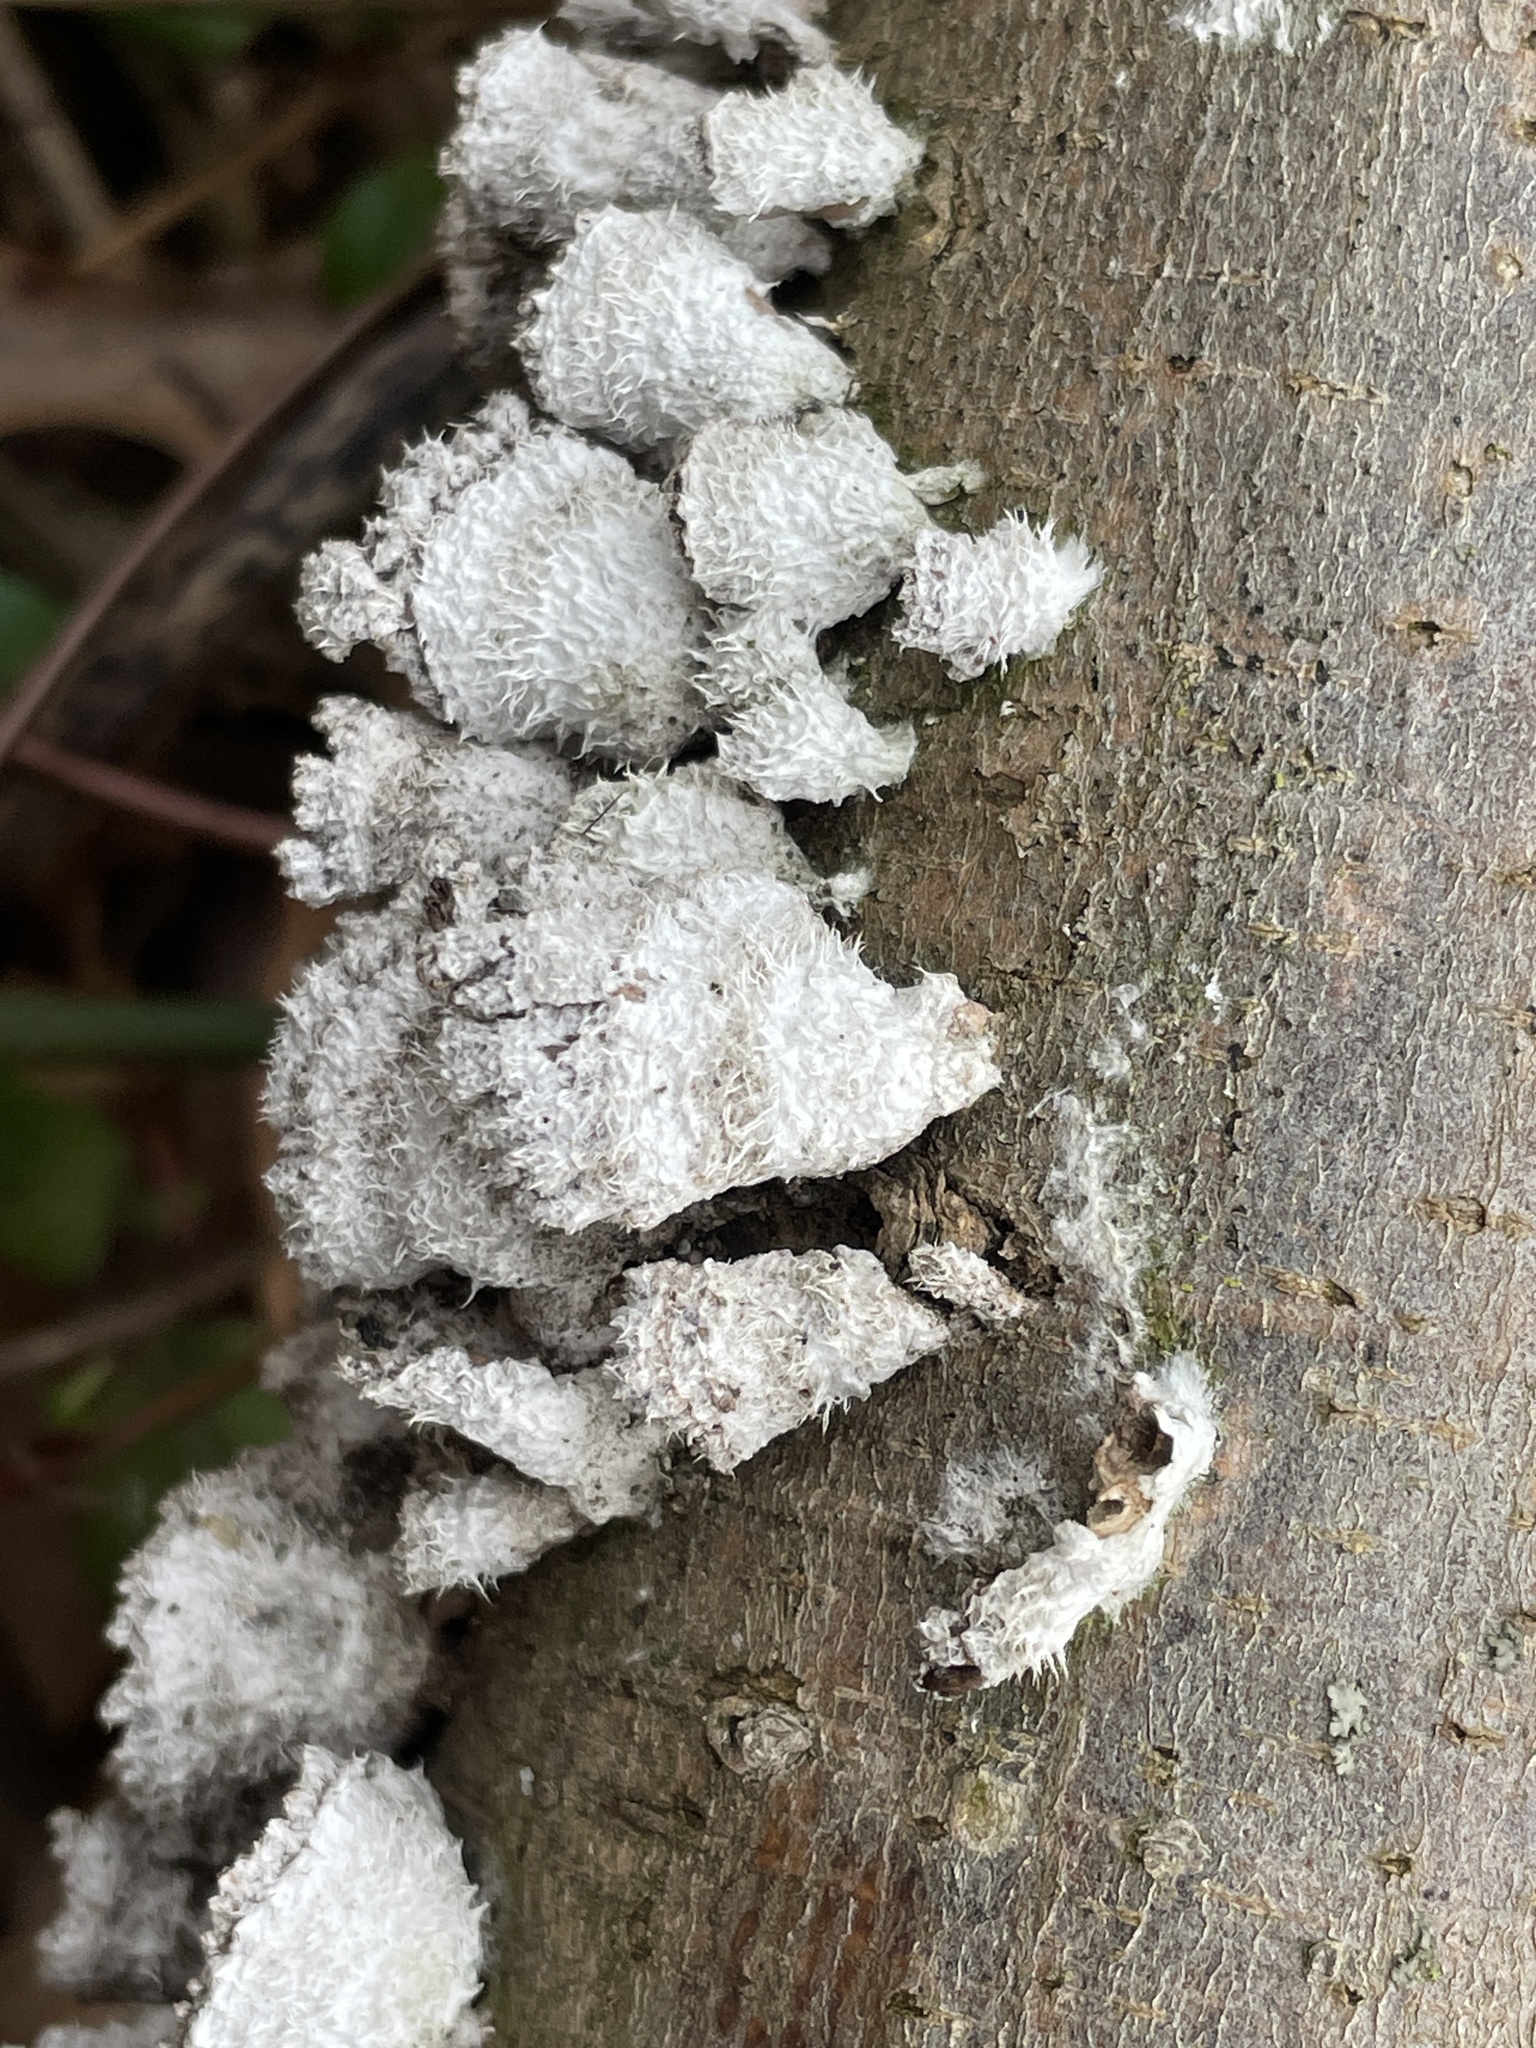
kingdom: Fungi
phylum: Basidiomycota
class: Agaricomycetes
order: Agaricales
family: Schizophyllaceae
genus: Schizophyllum
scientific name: Schizophyllum commune
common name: Common porecrust
